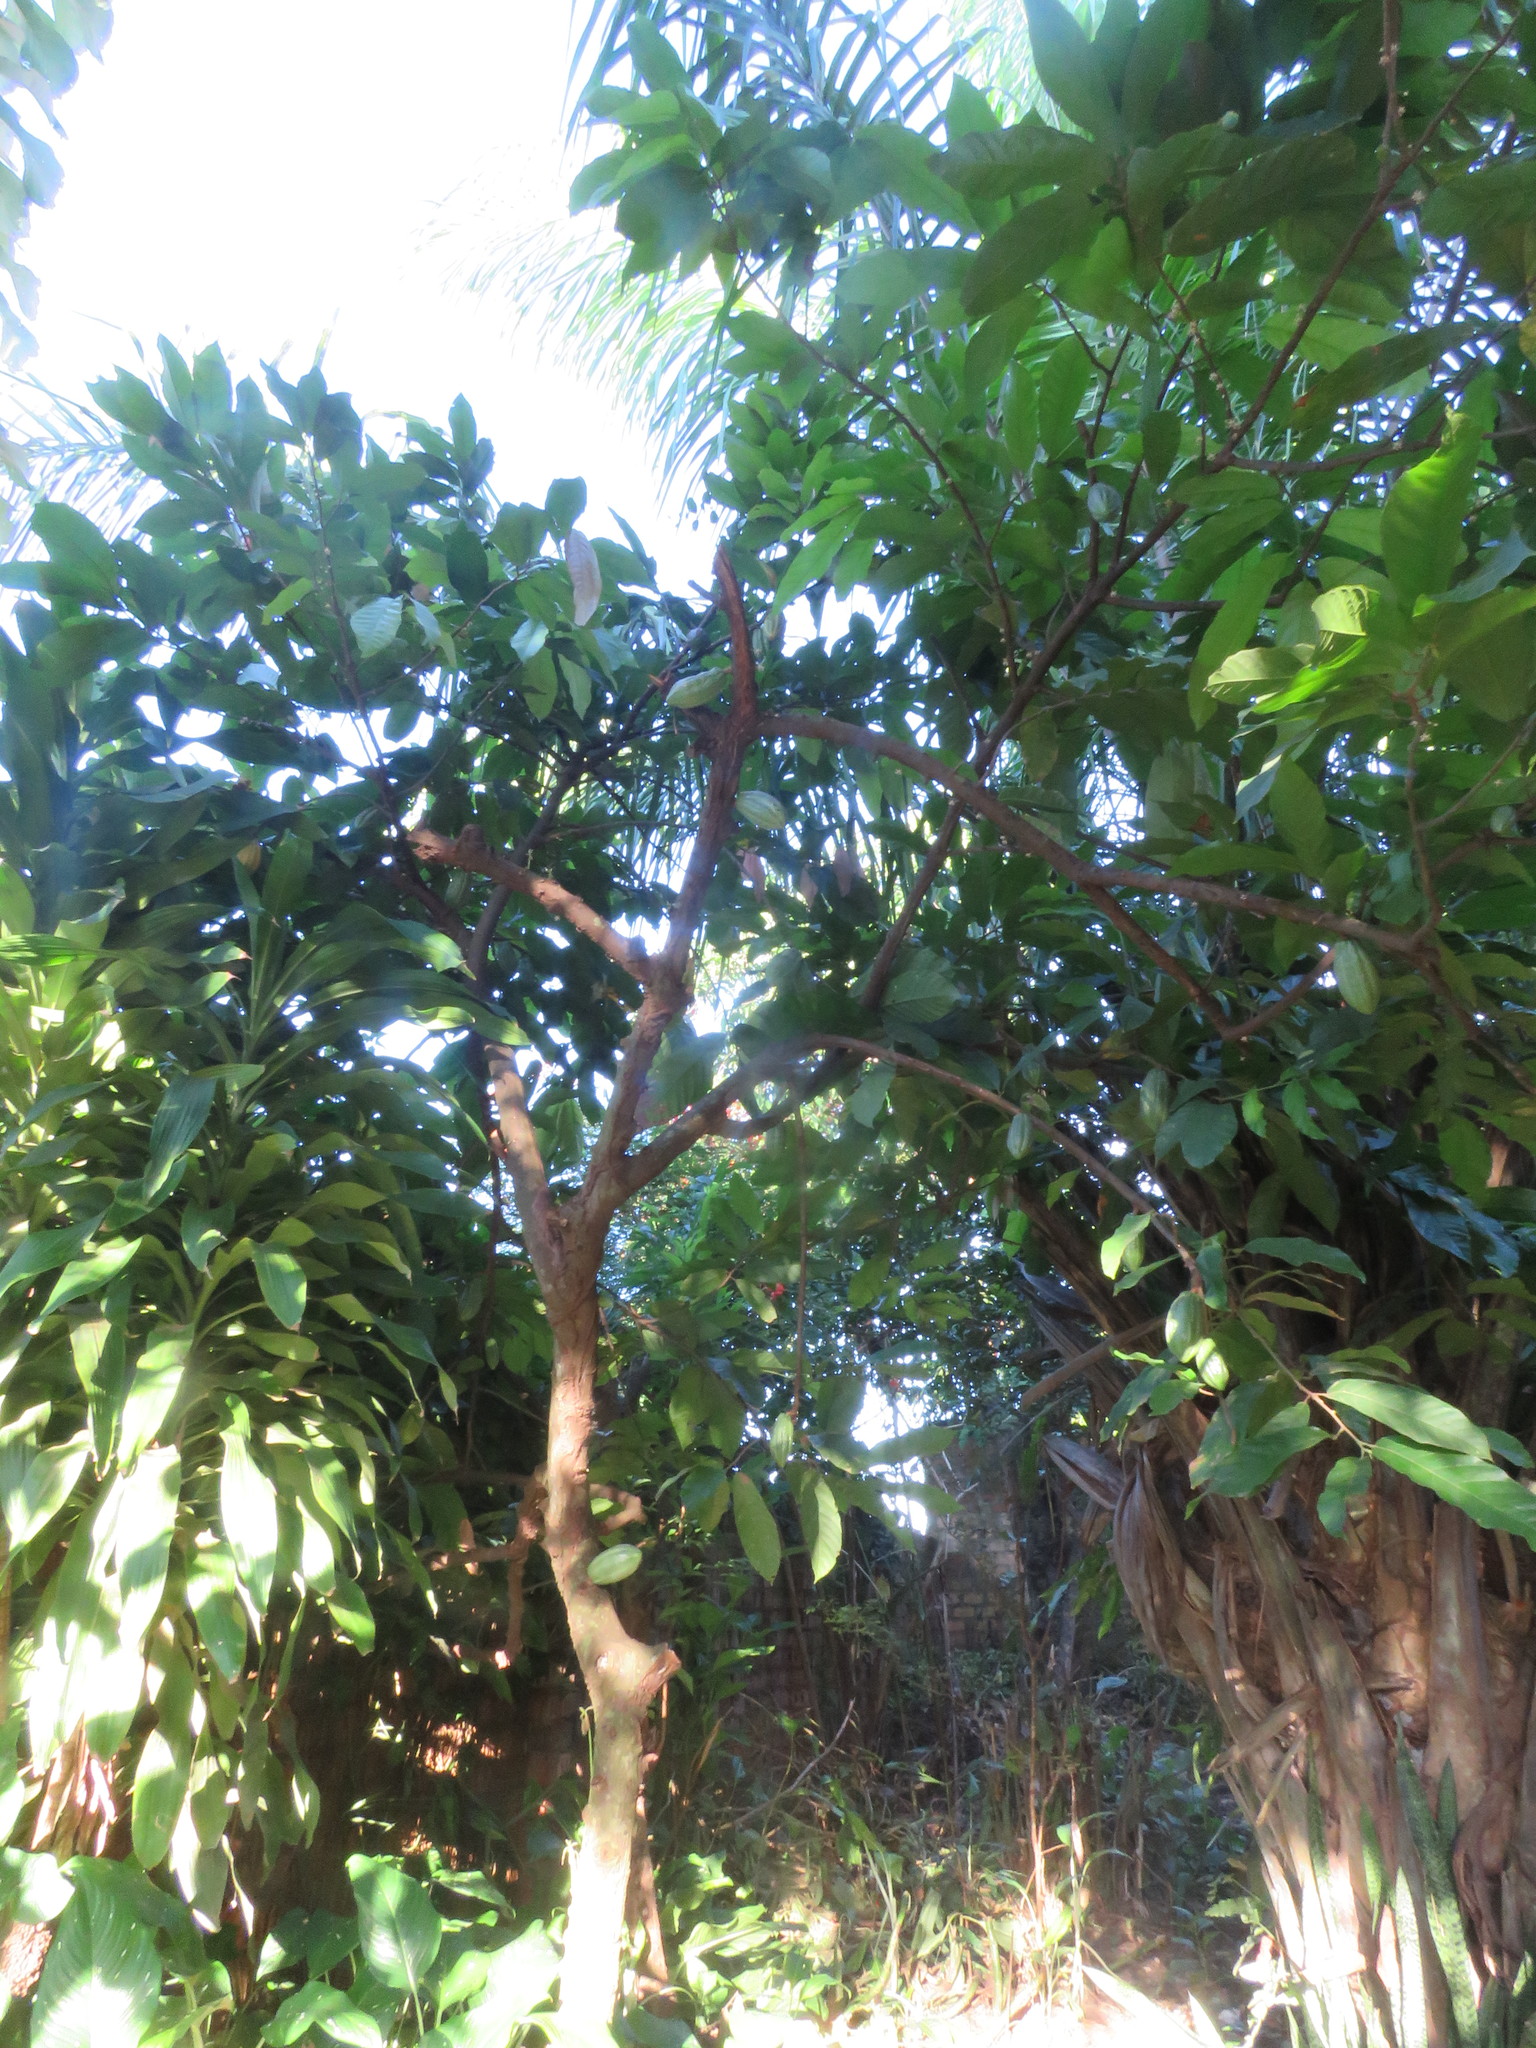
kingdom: Plantae
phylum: Tracheophyta
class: Magnoliopsida
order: Malvales
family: Malvaceae
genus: Theobroma
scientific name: Theobroma cacao
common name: Cocoa
